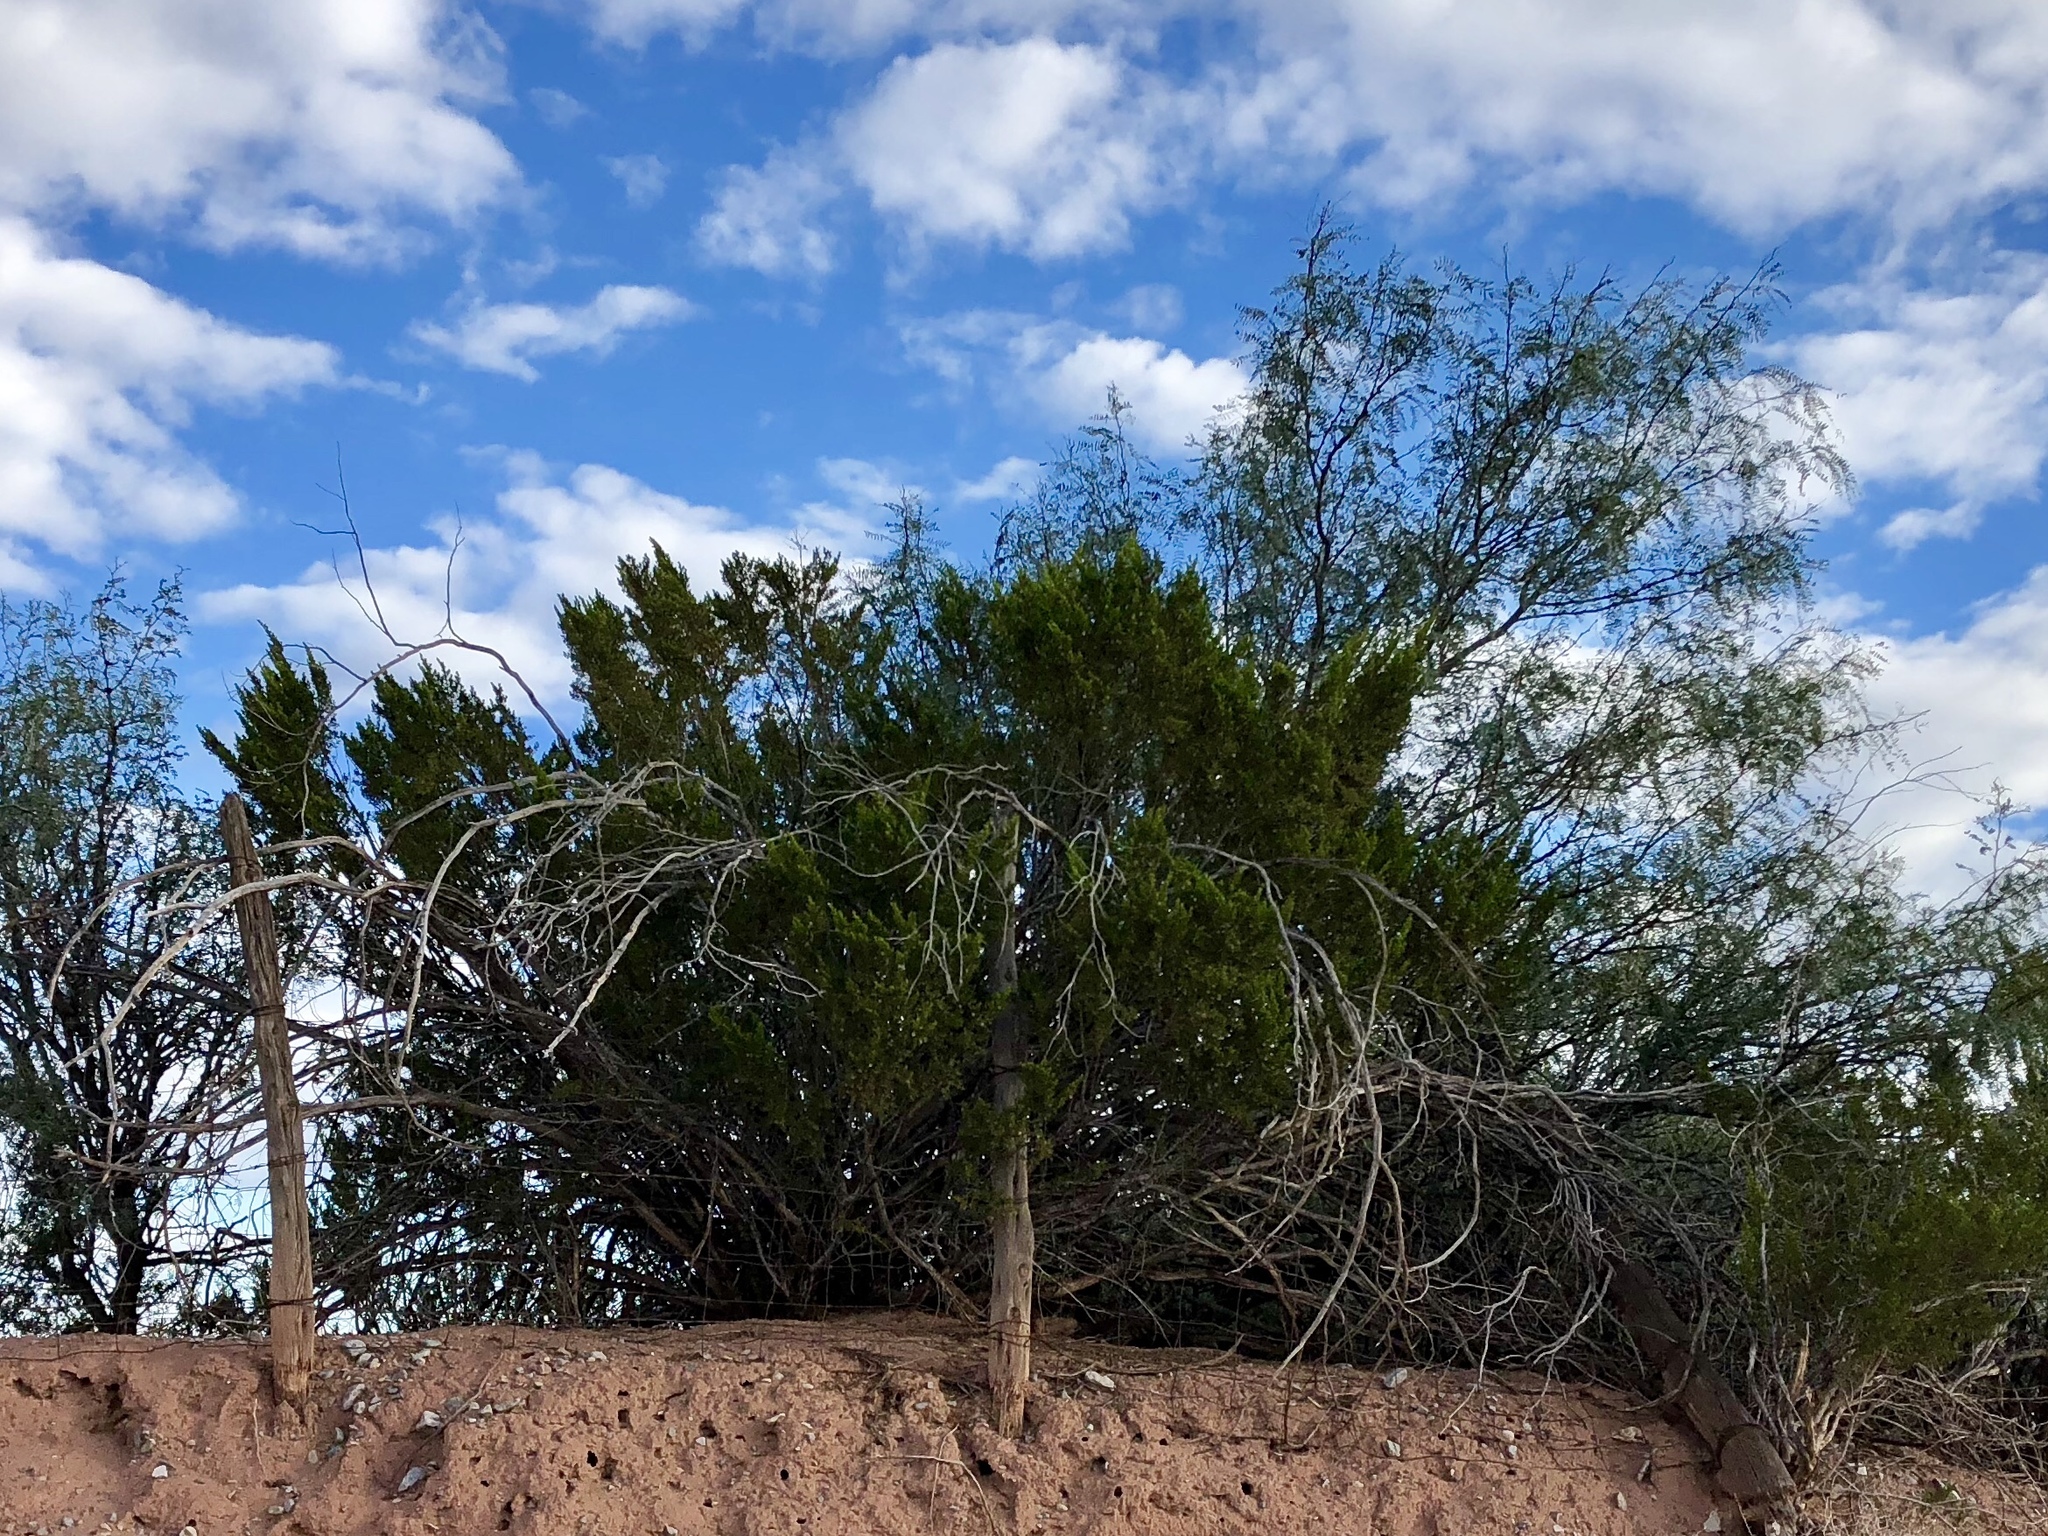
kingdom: Plantae
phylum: Tracheophyta
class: Magnoliopsida
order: Zygophyllales
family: Zygophyllaceae
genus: Larrea
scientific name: Larrea tridentata
